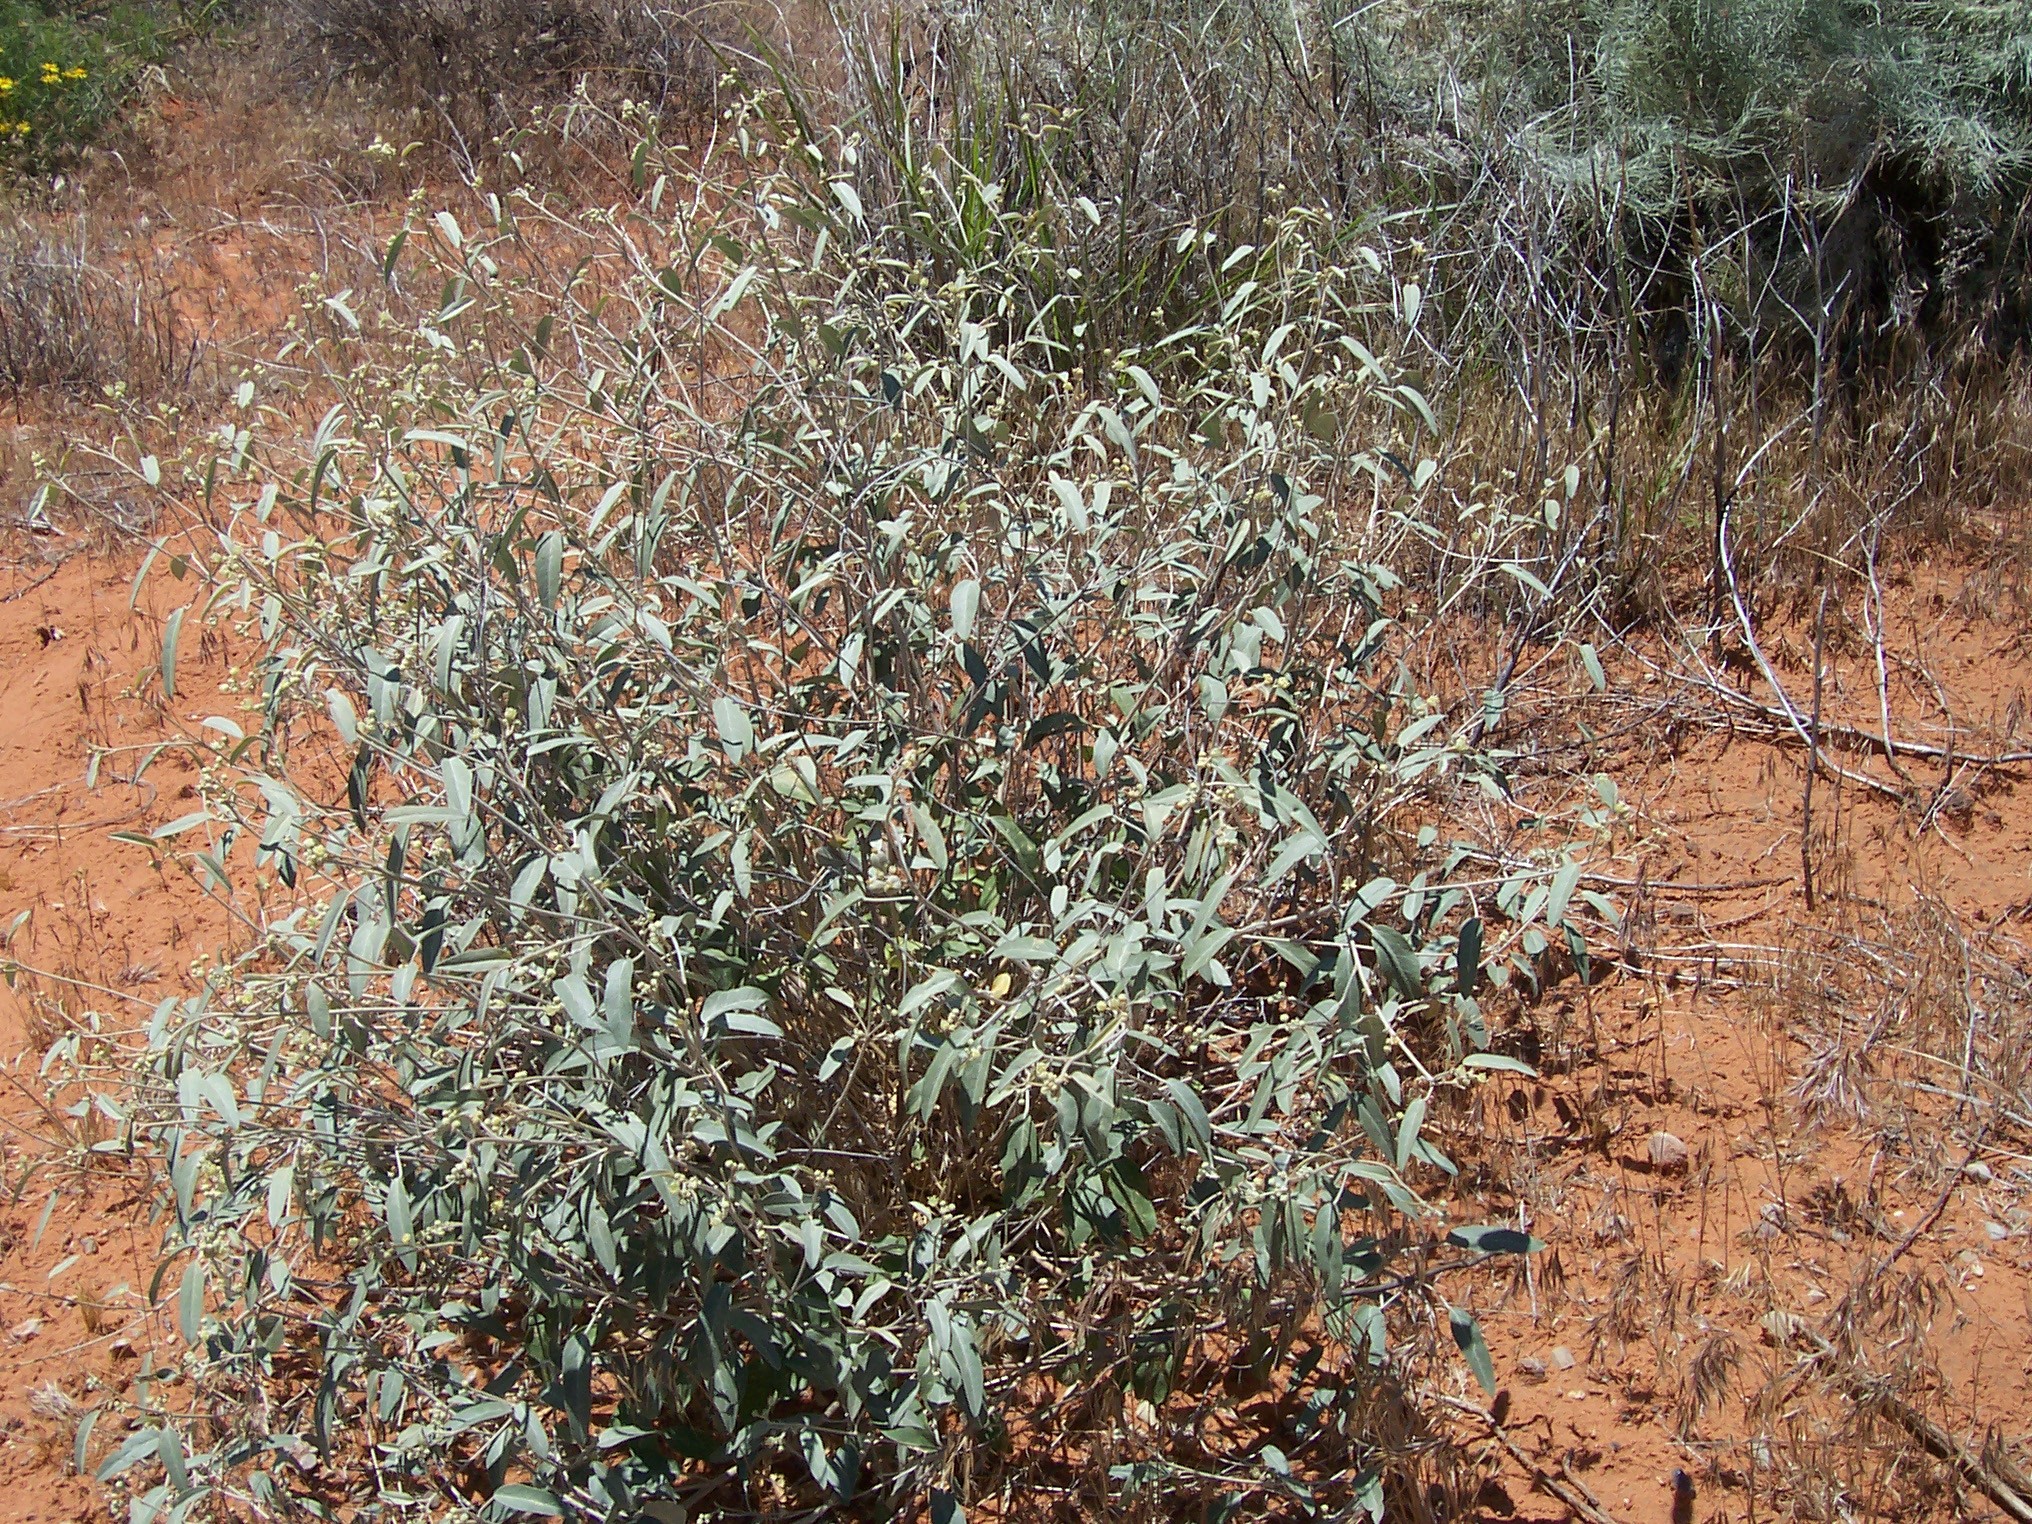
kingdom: Plantae
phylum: Tracheophyta
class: Magnoliopsida
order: Malpighiales
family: Euphorbiaceae
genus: Croton
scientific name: Croton californicus
